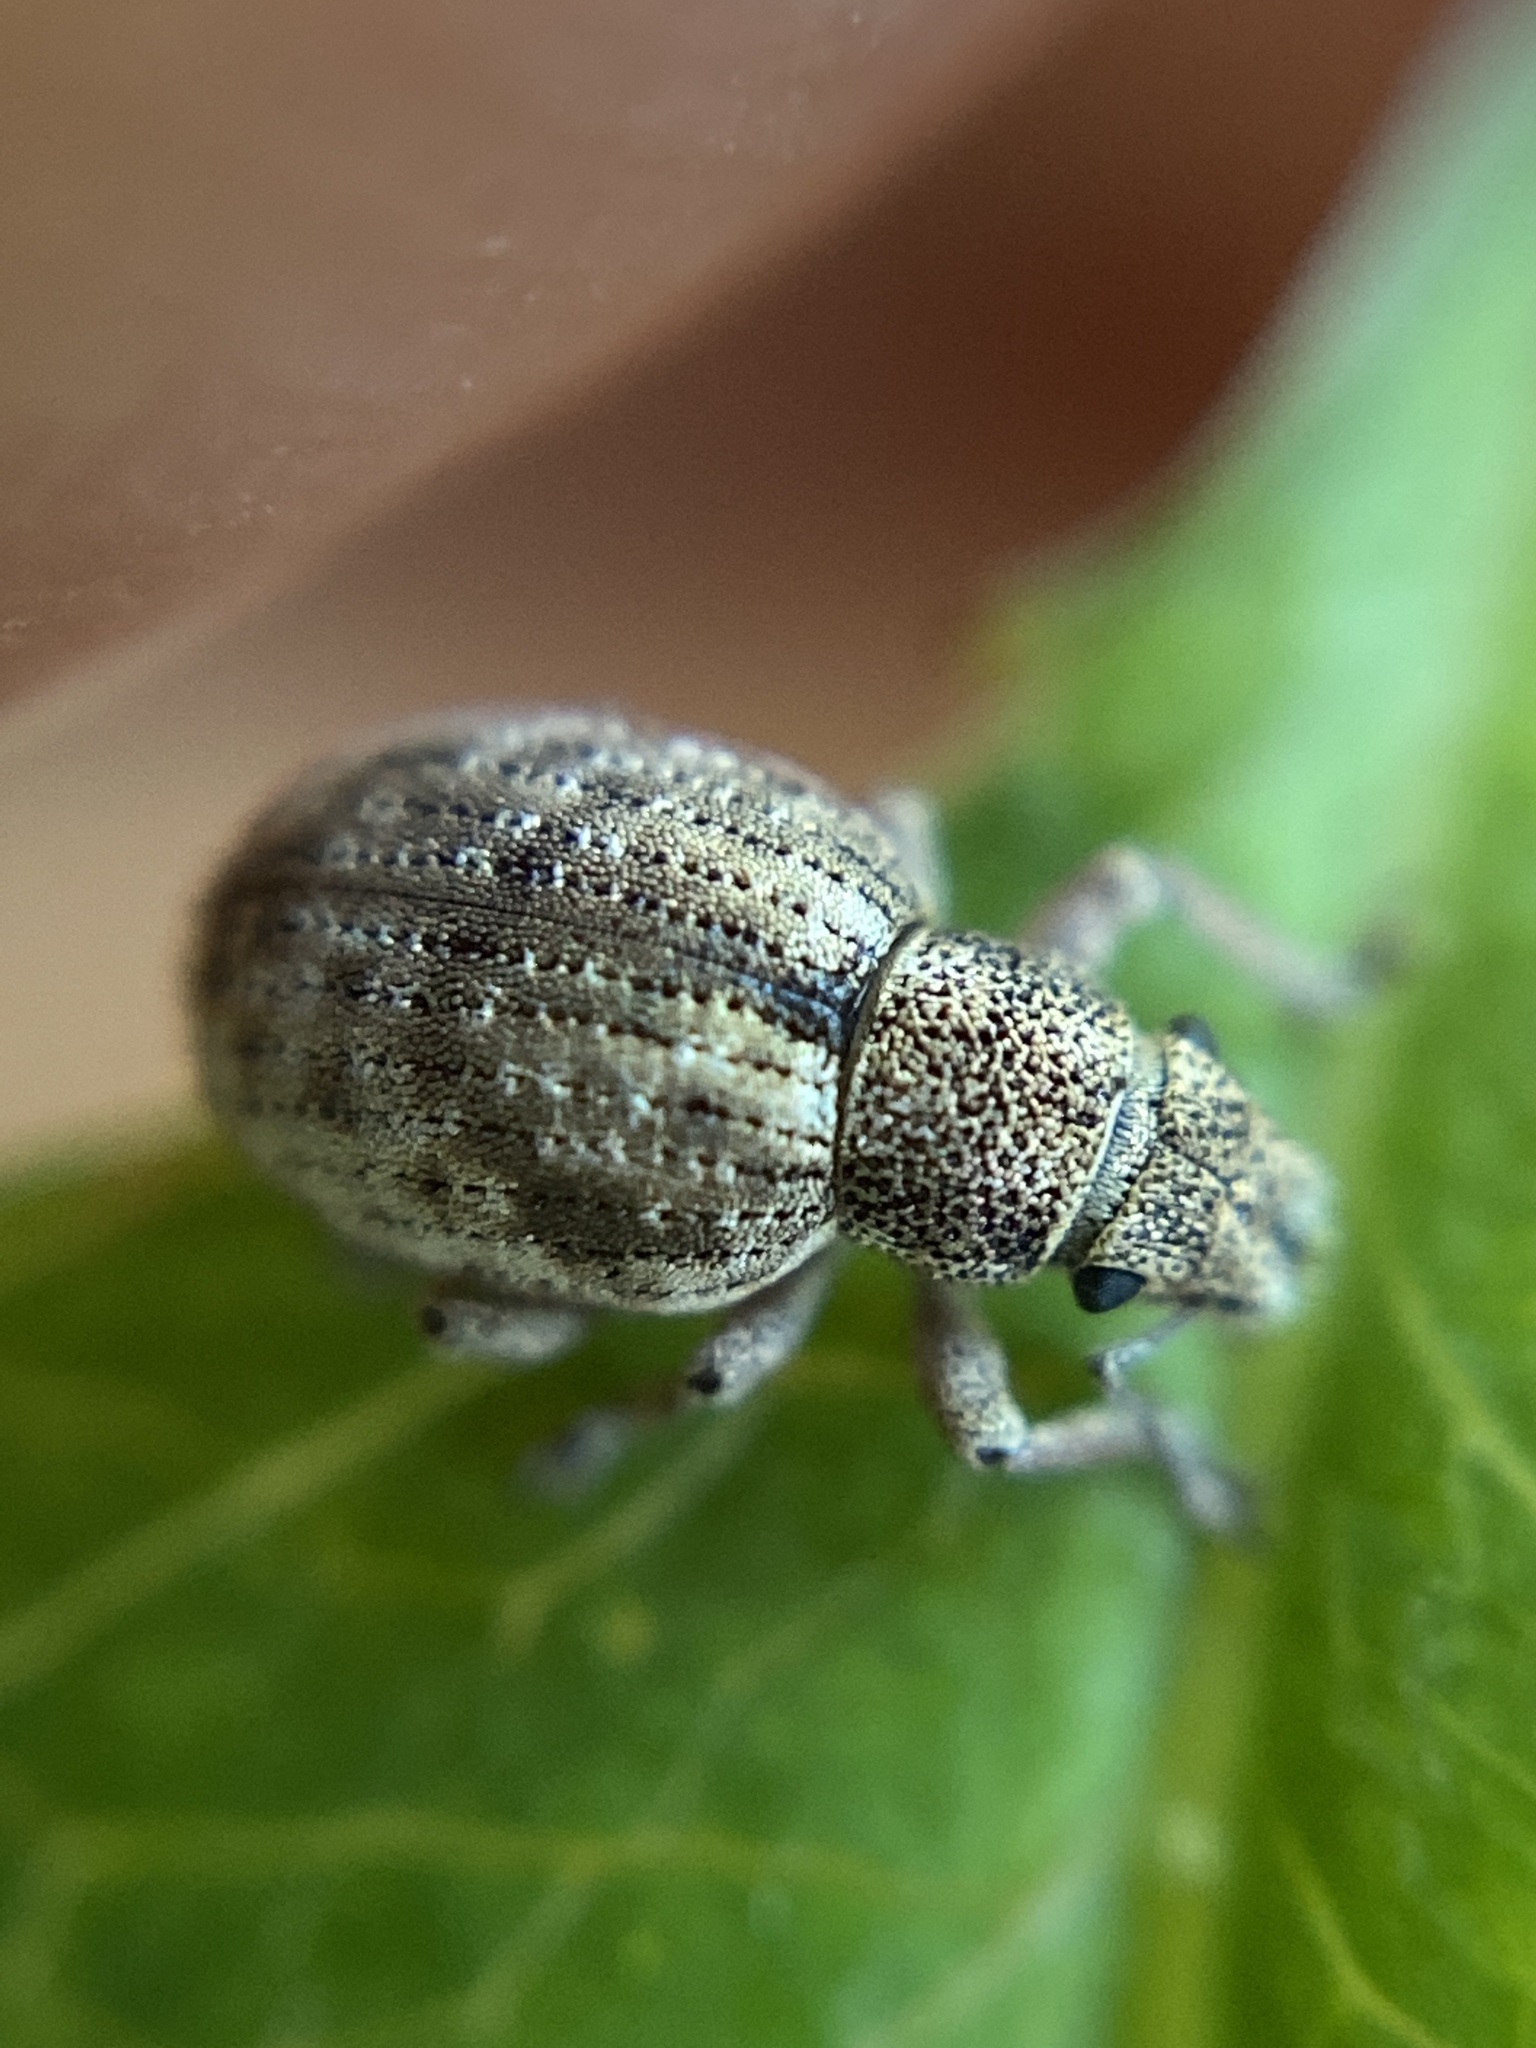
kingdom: Animalia
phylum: Arthropoda
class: Insecta
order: Coleoptera
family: Curculionidae
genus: Strophosoma
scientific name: Strophosoma capitatum
